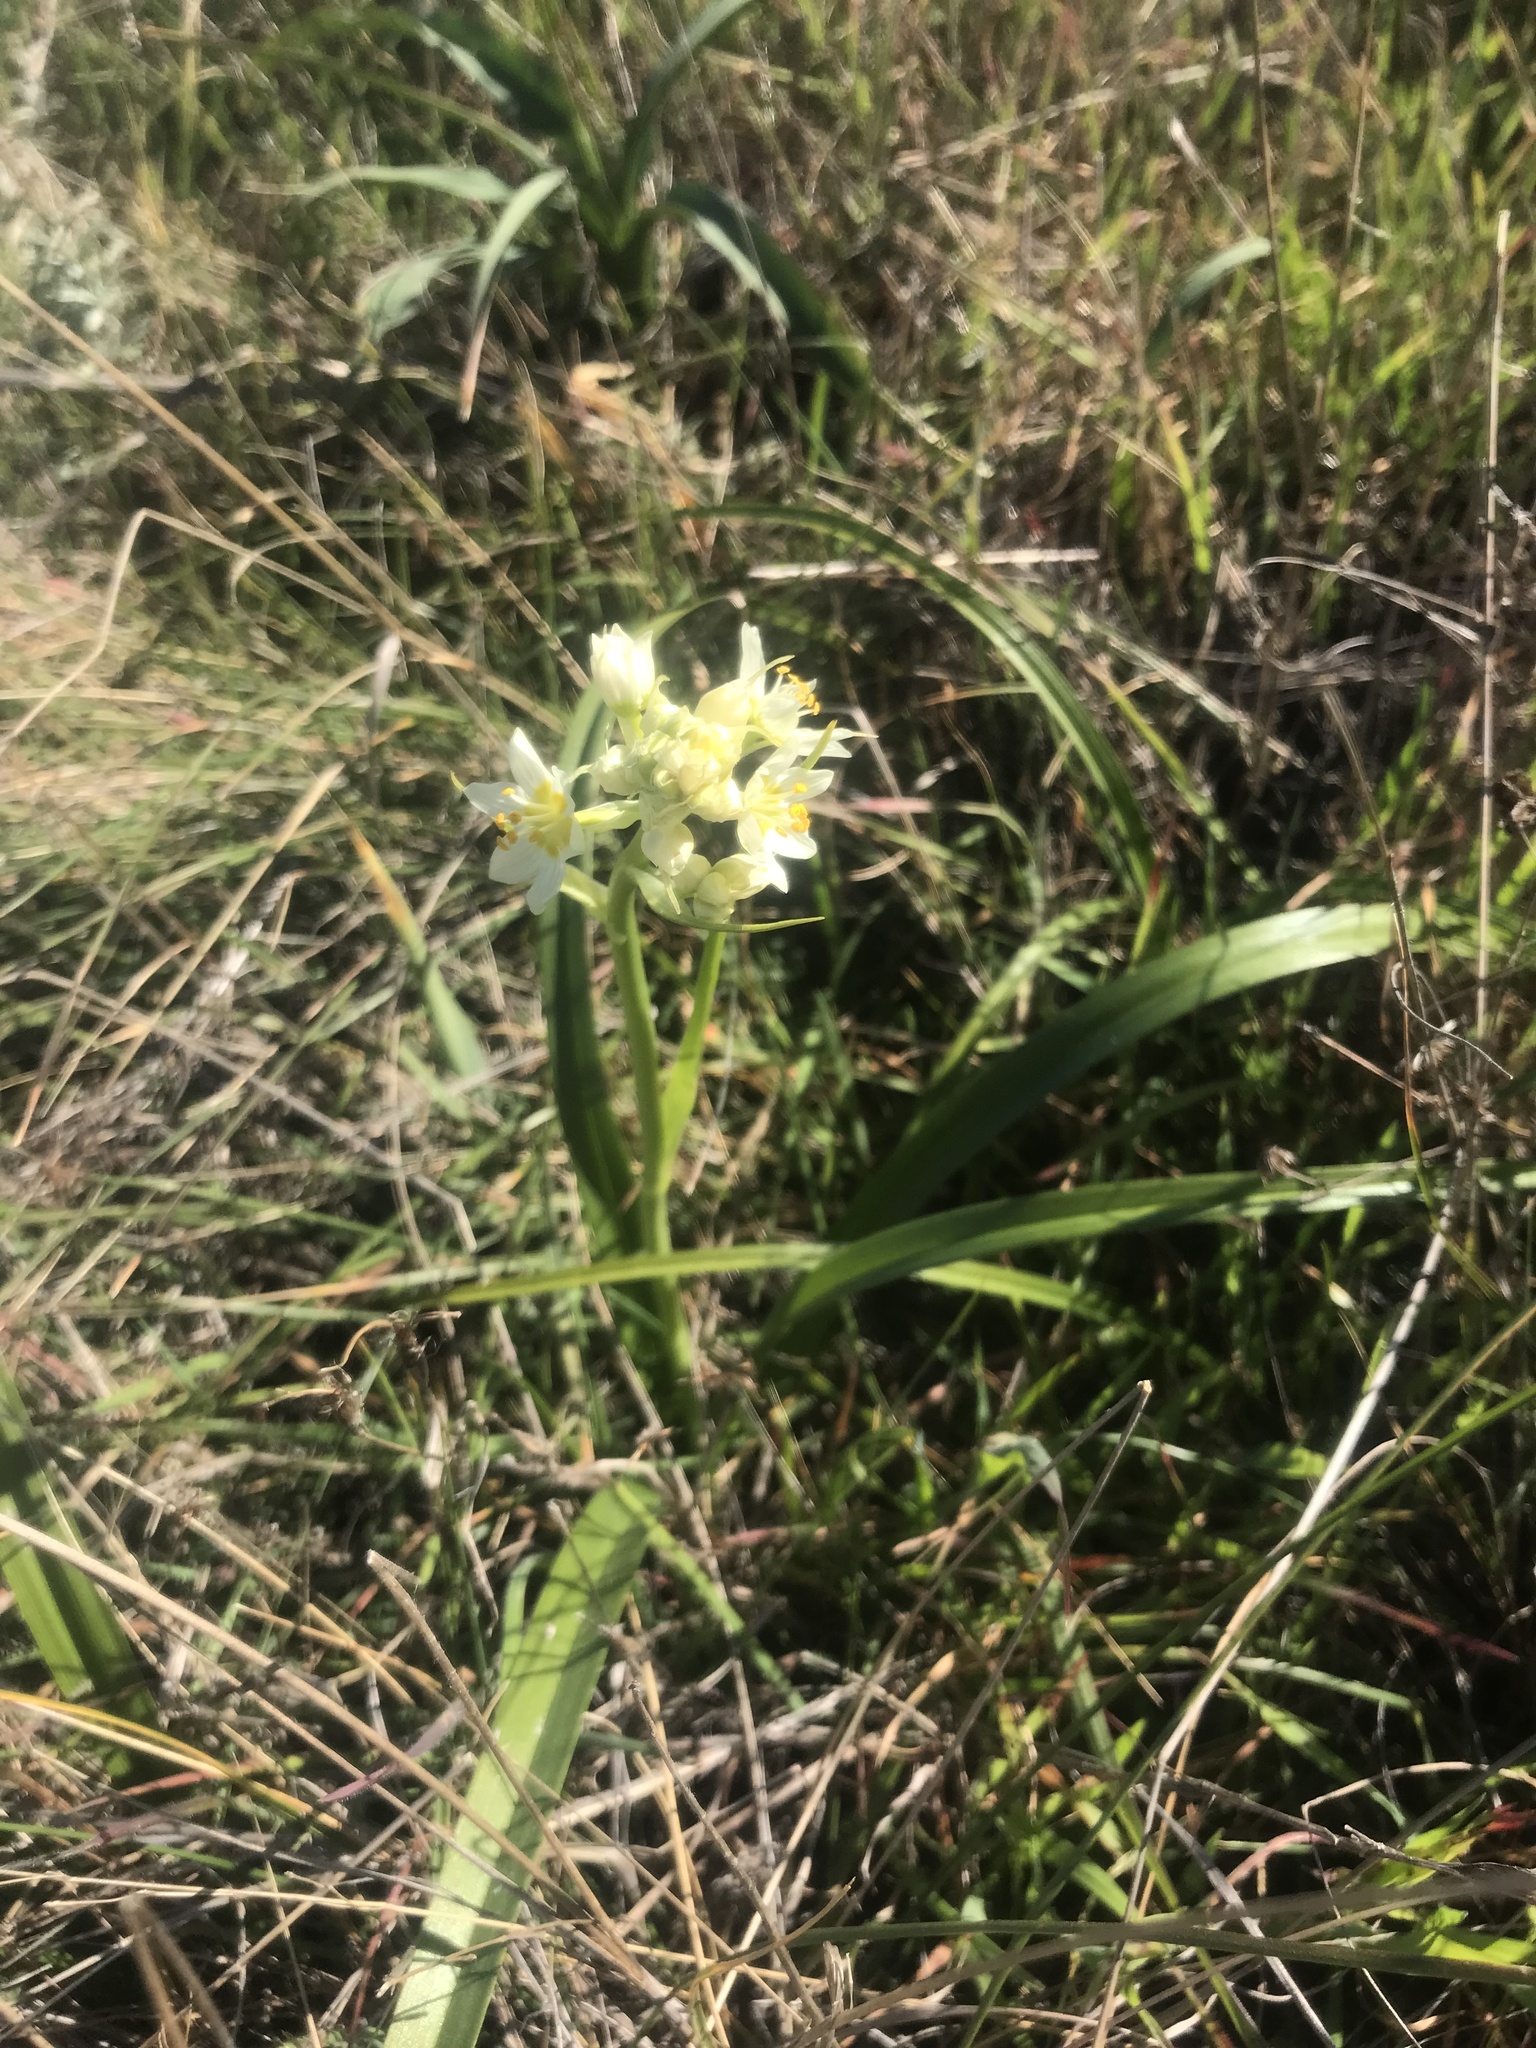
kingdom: Plantae
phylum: Tracheophyta
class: Liliopsida
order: Liliales
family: Melanthiaceae
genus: Toxicoscordion
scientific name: Toxicoscordion fremontii
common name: Fremont's death camas
